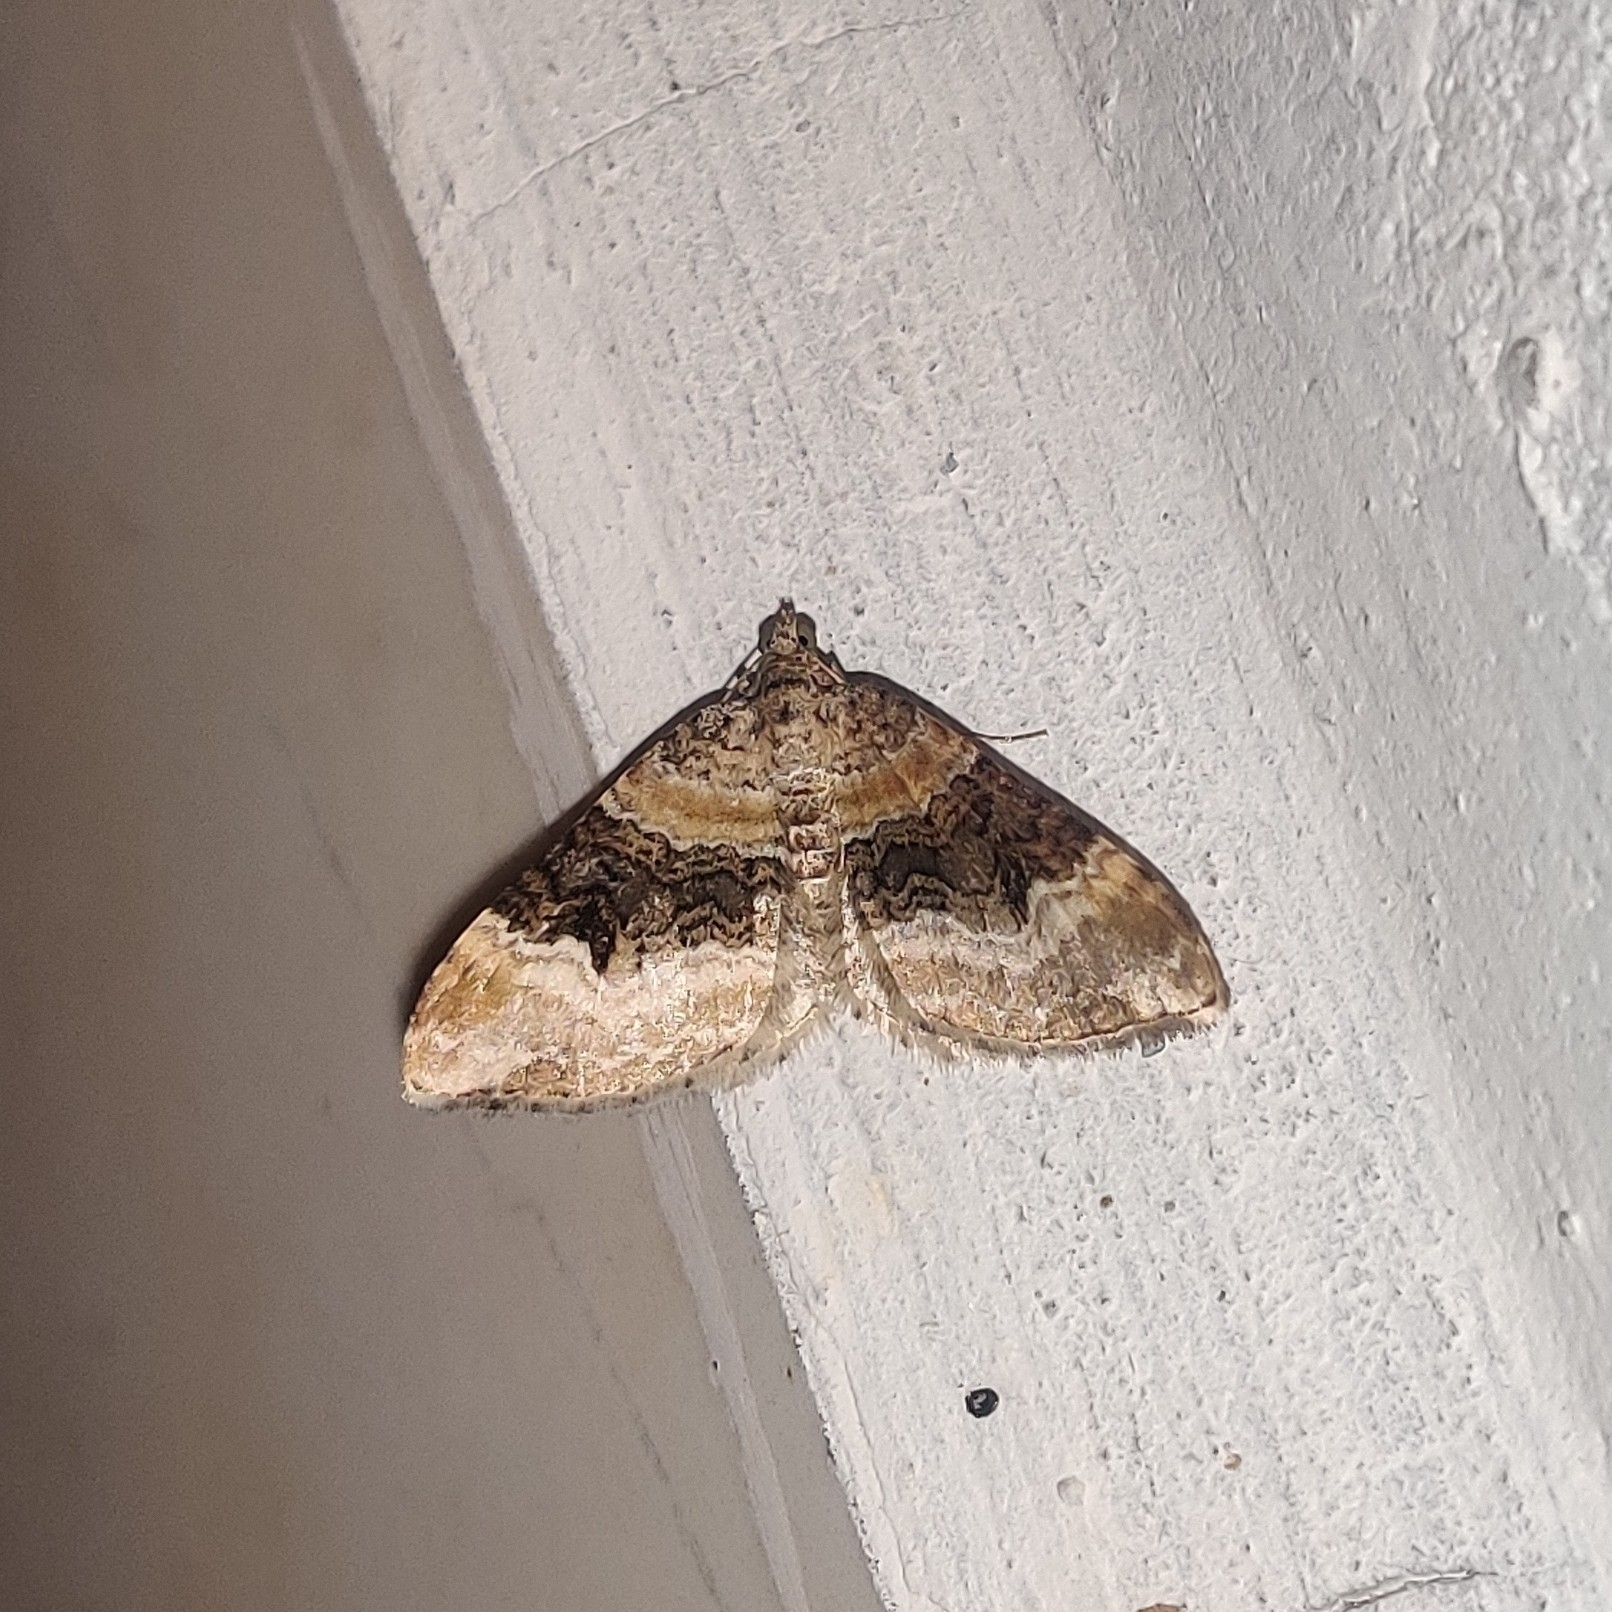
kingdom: Animalia
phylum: Arthropoda
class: Insecta
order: Lepidoptera
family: Geometridae
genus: Euphyia
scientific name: Euphyia subangulata
